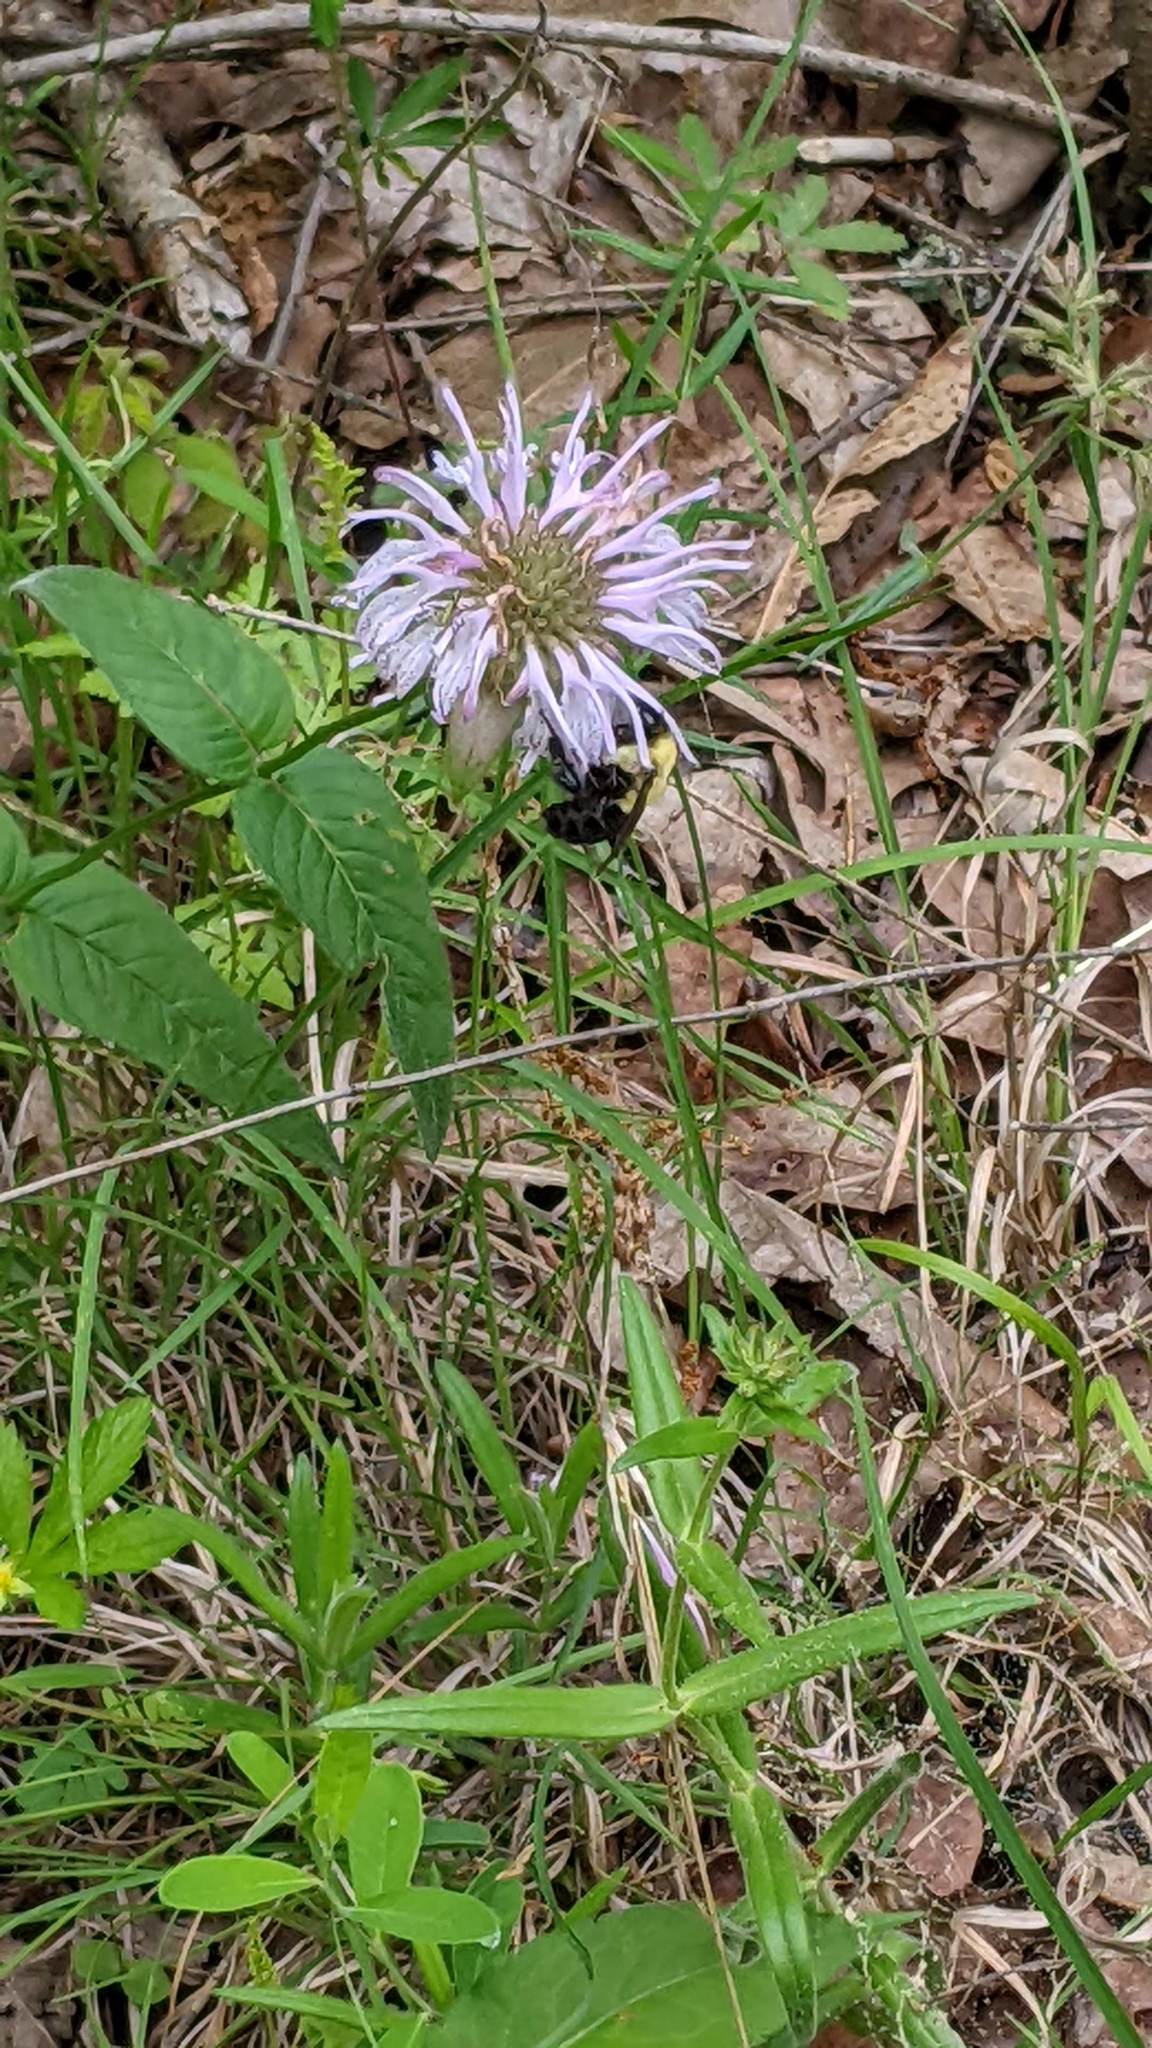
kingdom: Animalia
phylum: Arthropoda
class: Insecta
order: Hymenoptera
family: Apidae
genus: Bombus
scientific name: Bombus impatiens
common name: Common eastern bumble bee
